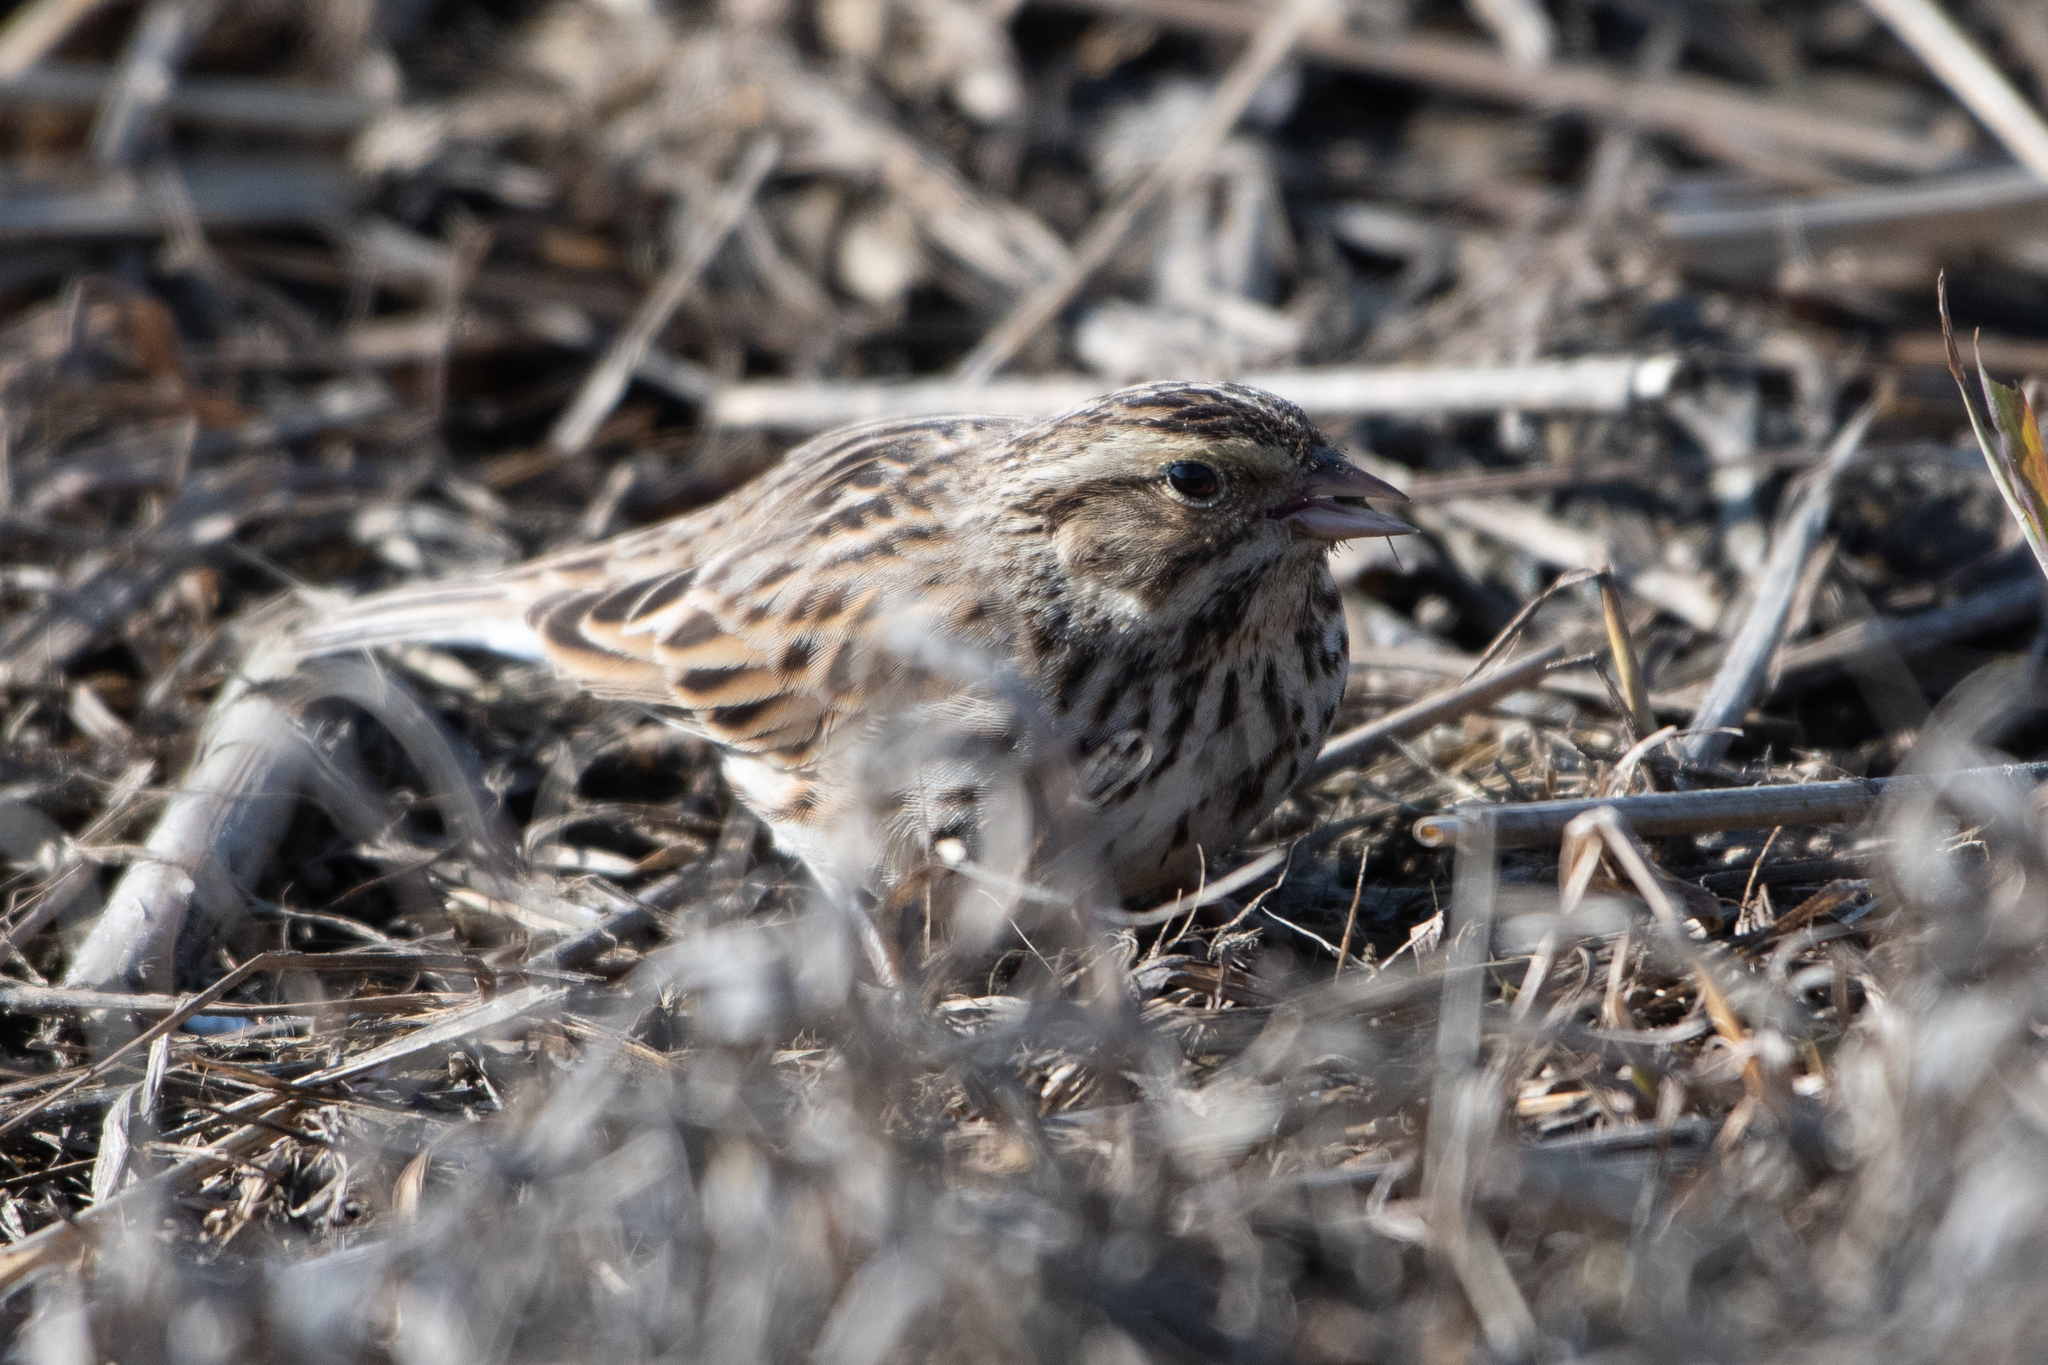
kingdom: Animalia
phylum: Chordata
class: Aves
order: Passeriformes
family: Passerellidae
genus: Passerculus
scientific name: Passerculus sandwichensis
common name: Savannah sparrow
